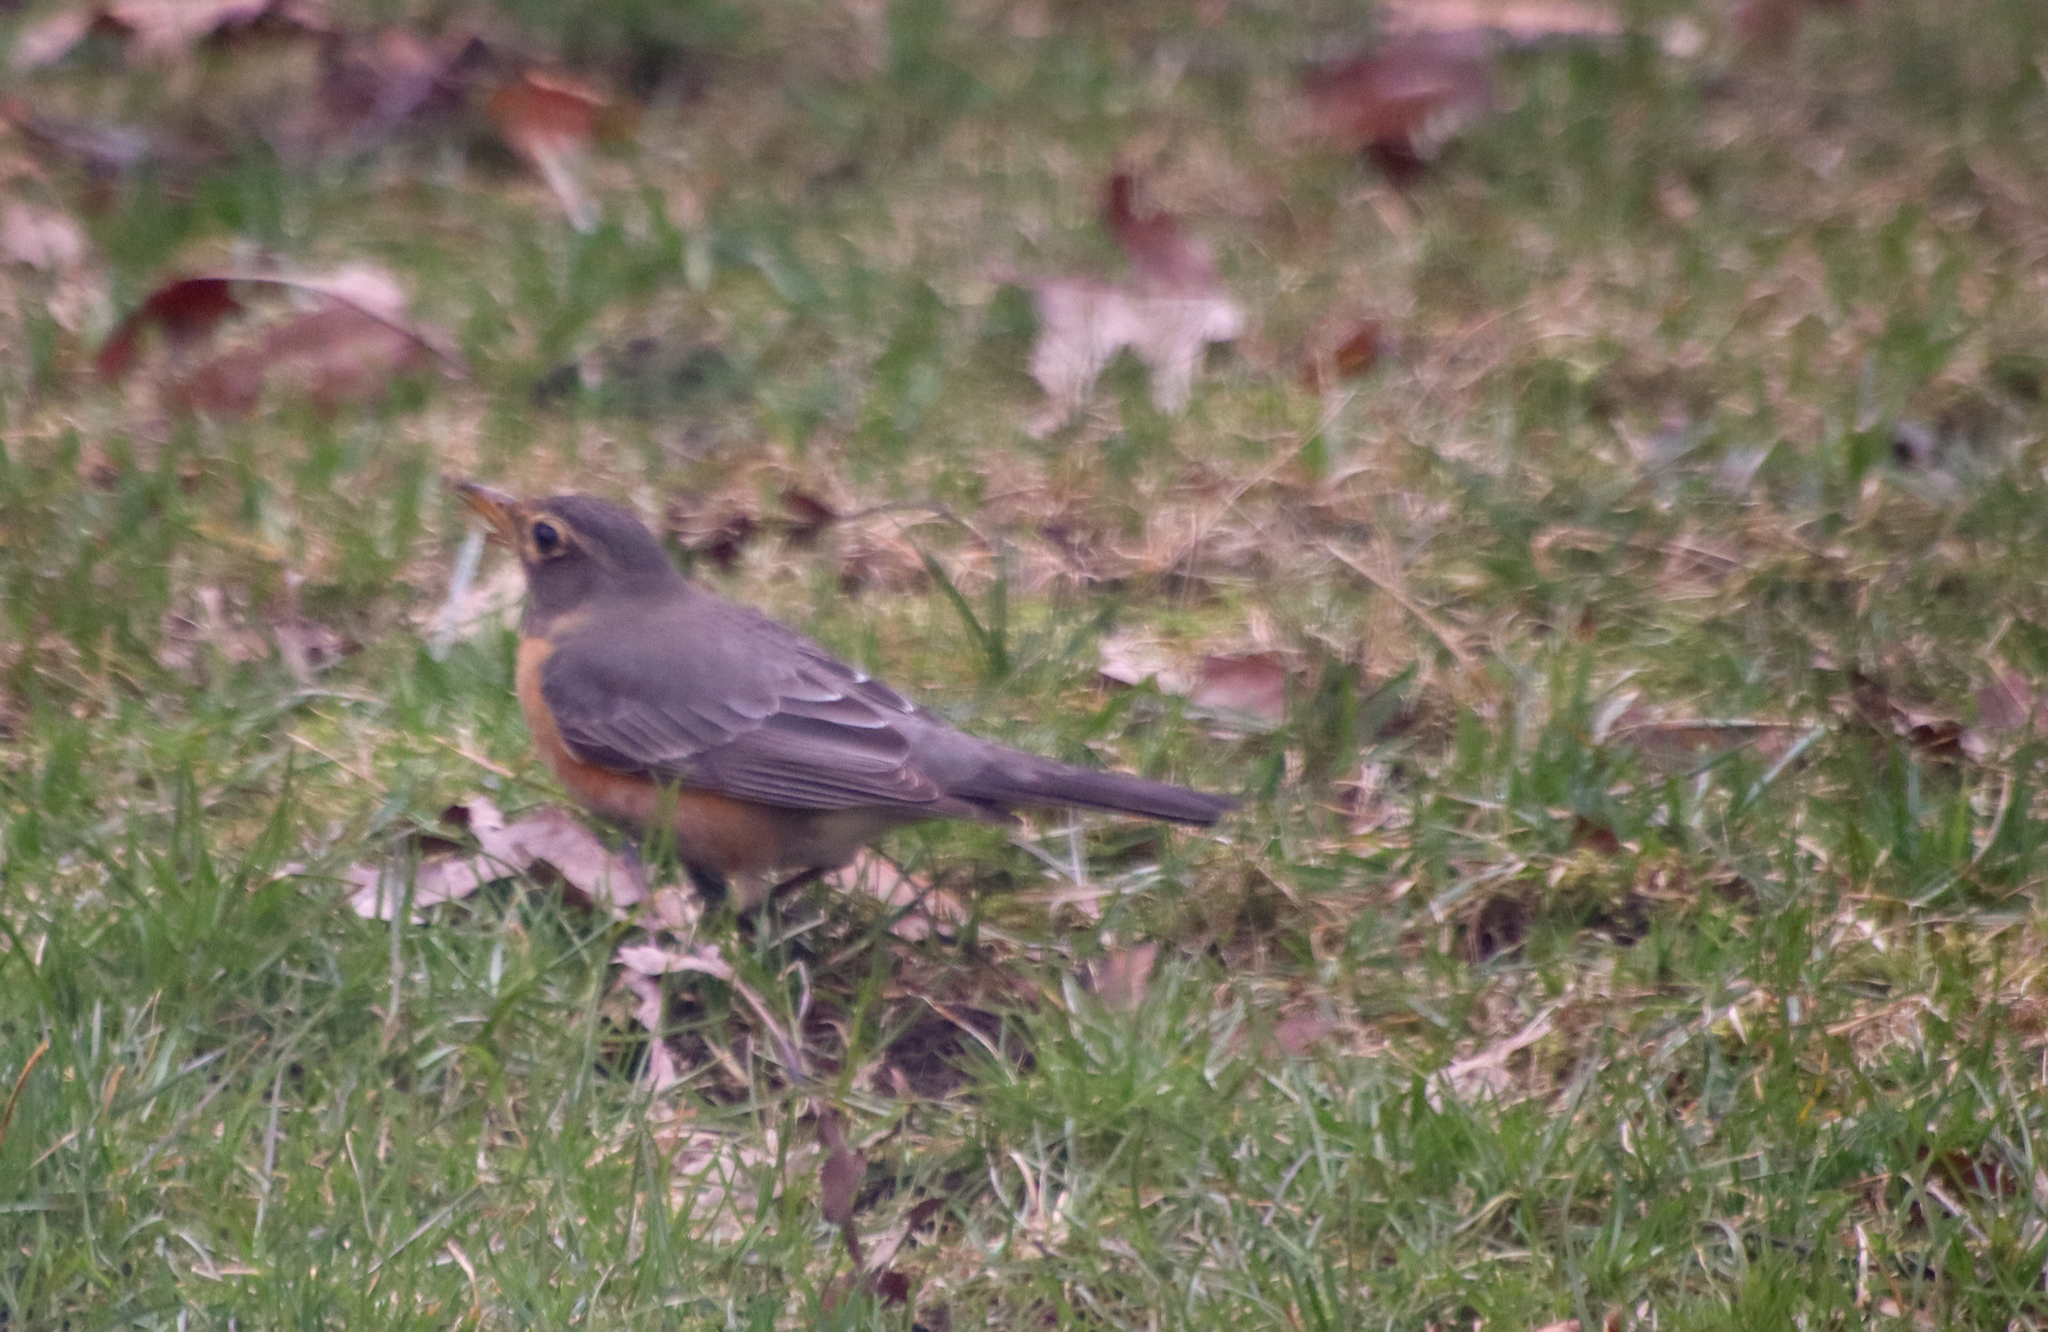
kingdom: Animalia
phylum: Chordata
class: Aves
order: Passeriformes
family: Turdidae
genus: Turdus
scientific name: Turdus migratorius
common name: American robin
